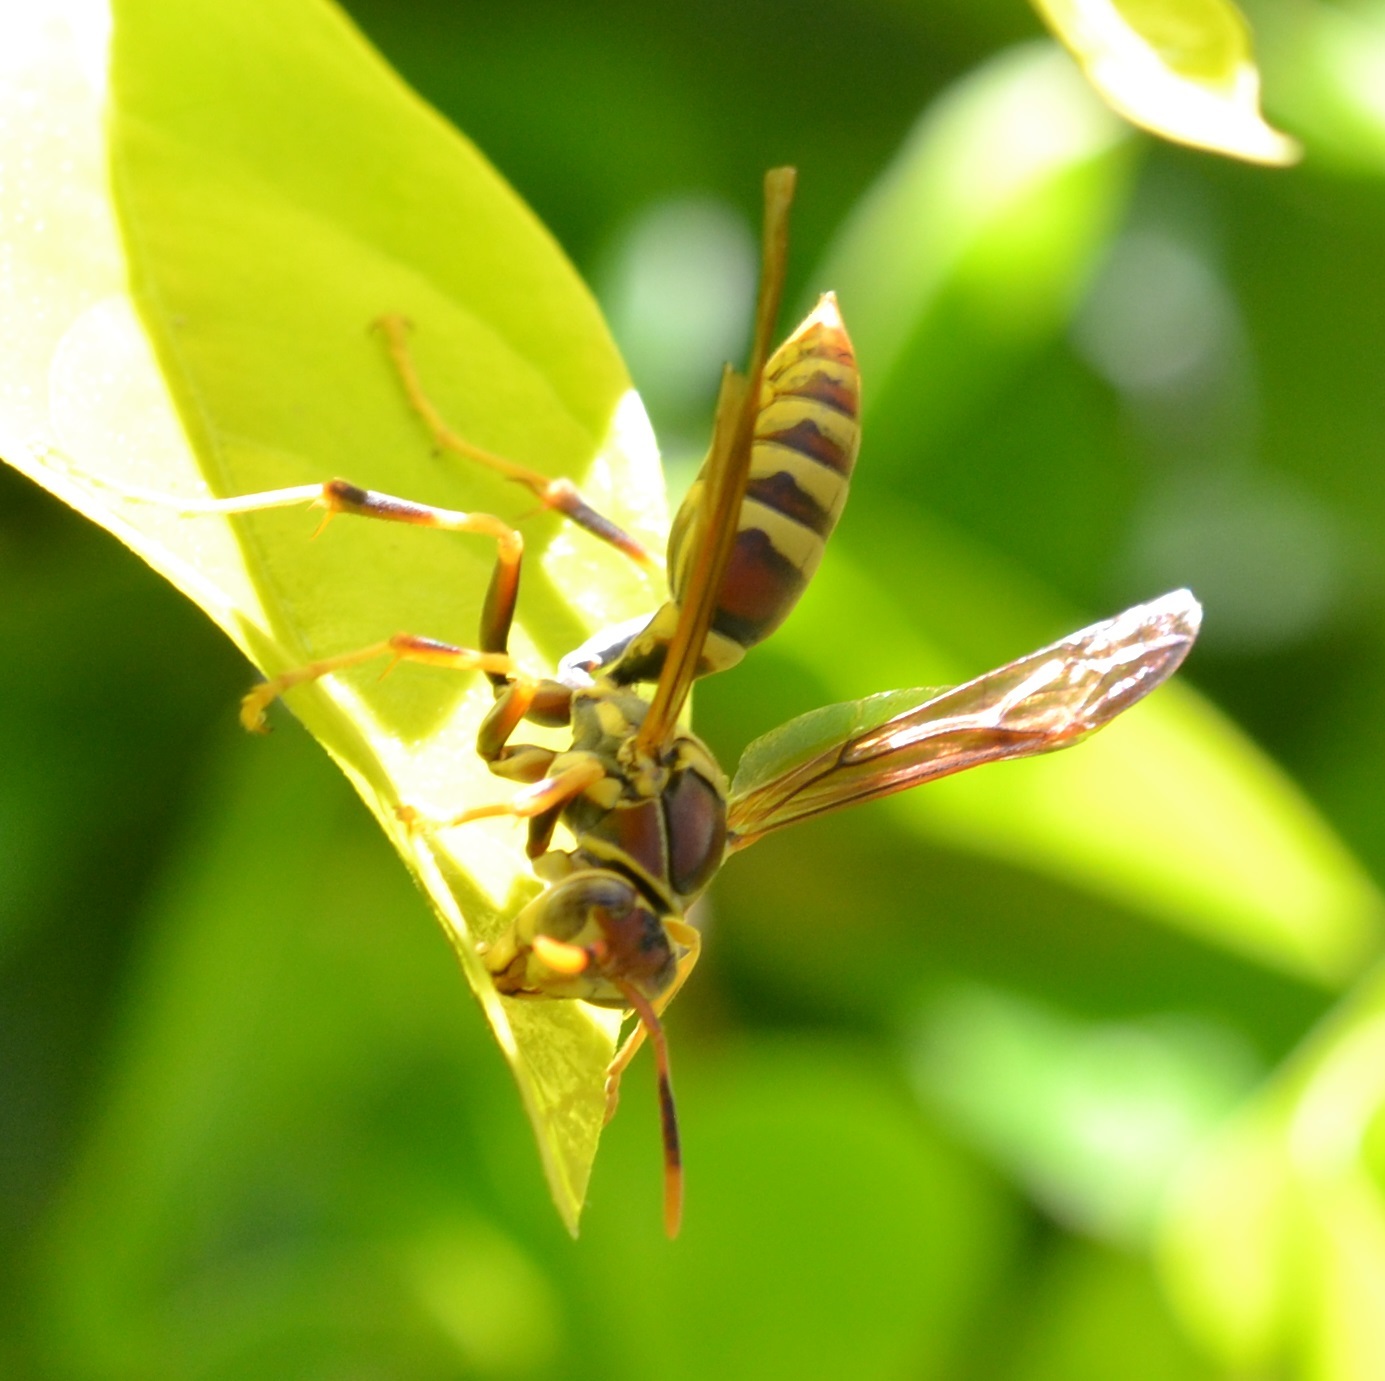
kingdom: Animalia
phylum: Arthropoda
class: Insecta
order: Hymenoptera
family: Eumenidae
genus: Polistes
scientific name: Polistes exclamans
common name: Paper wasp
